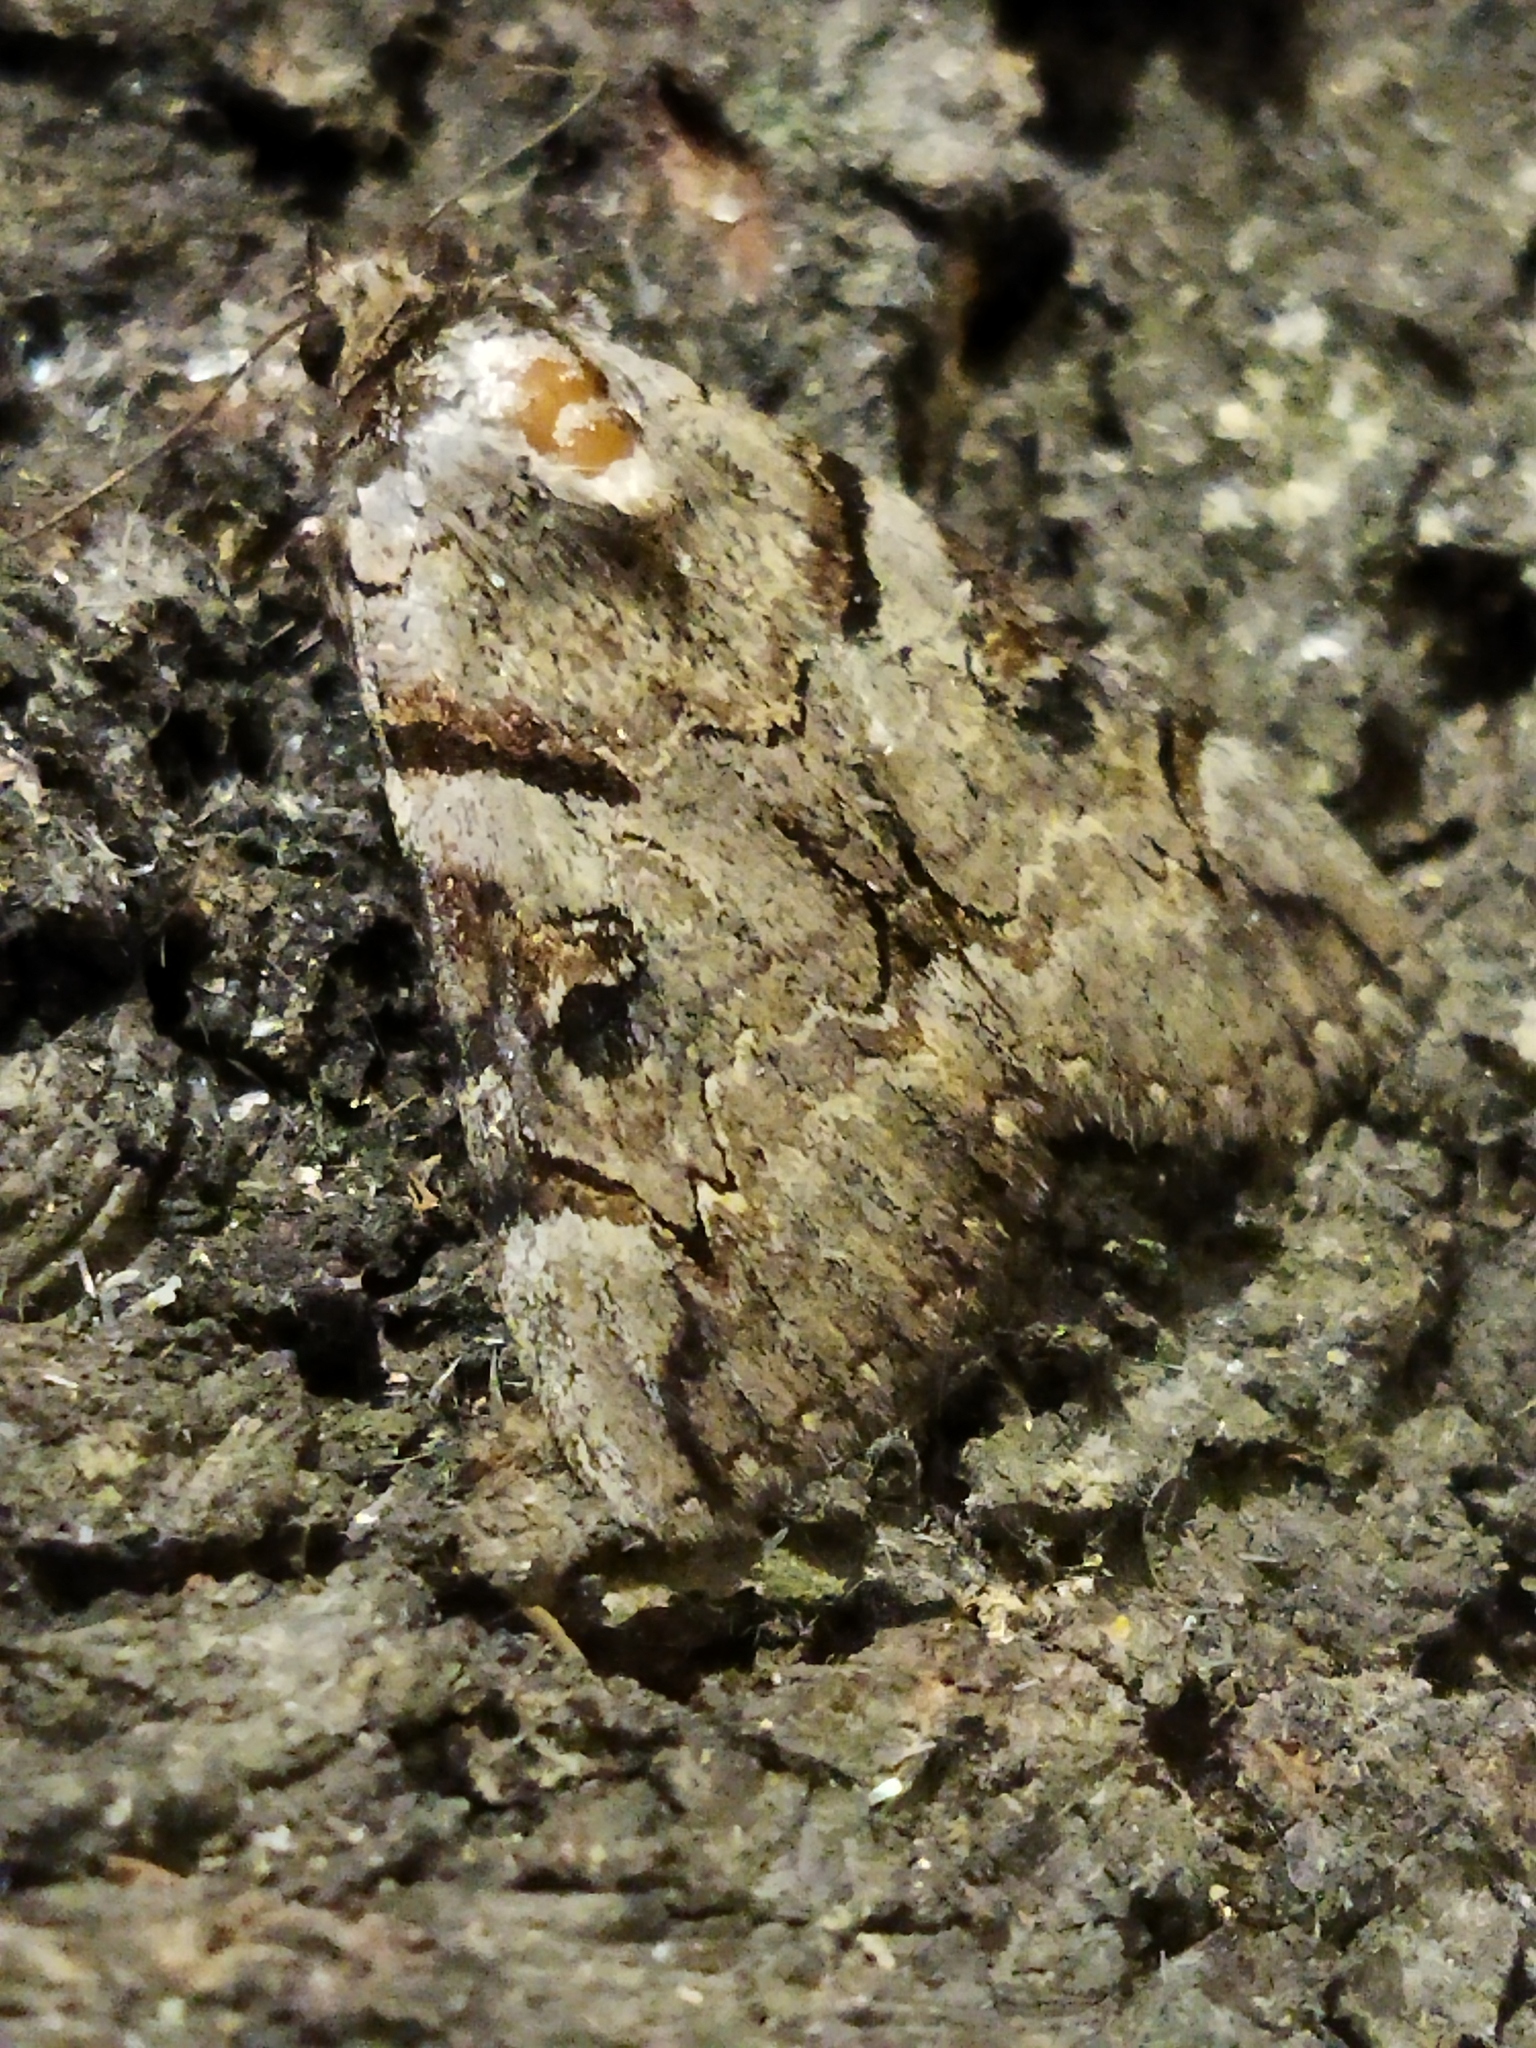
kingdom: Animalia
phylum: Arthropoda
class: Insecta
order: Lepidoptera
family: Erebidae
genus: Catocala
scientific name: Catocala hymenaea
